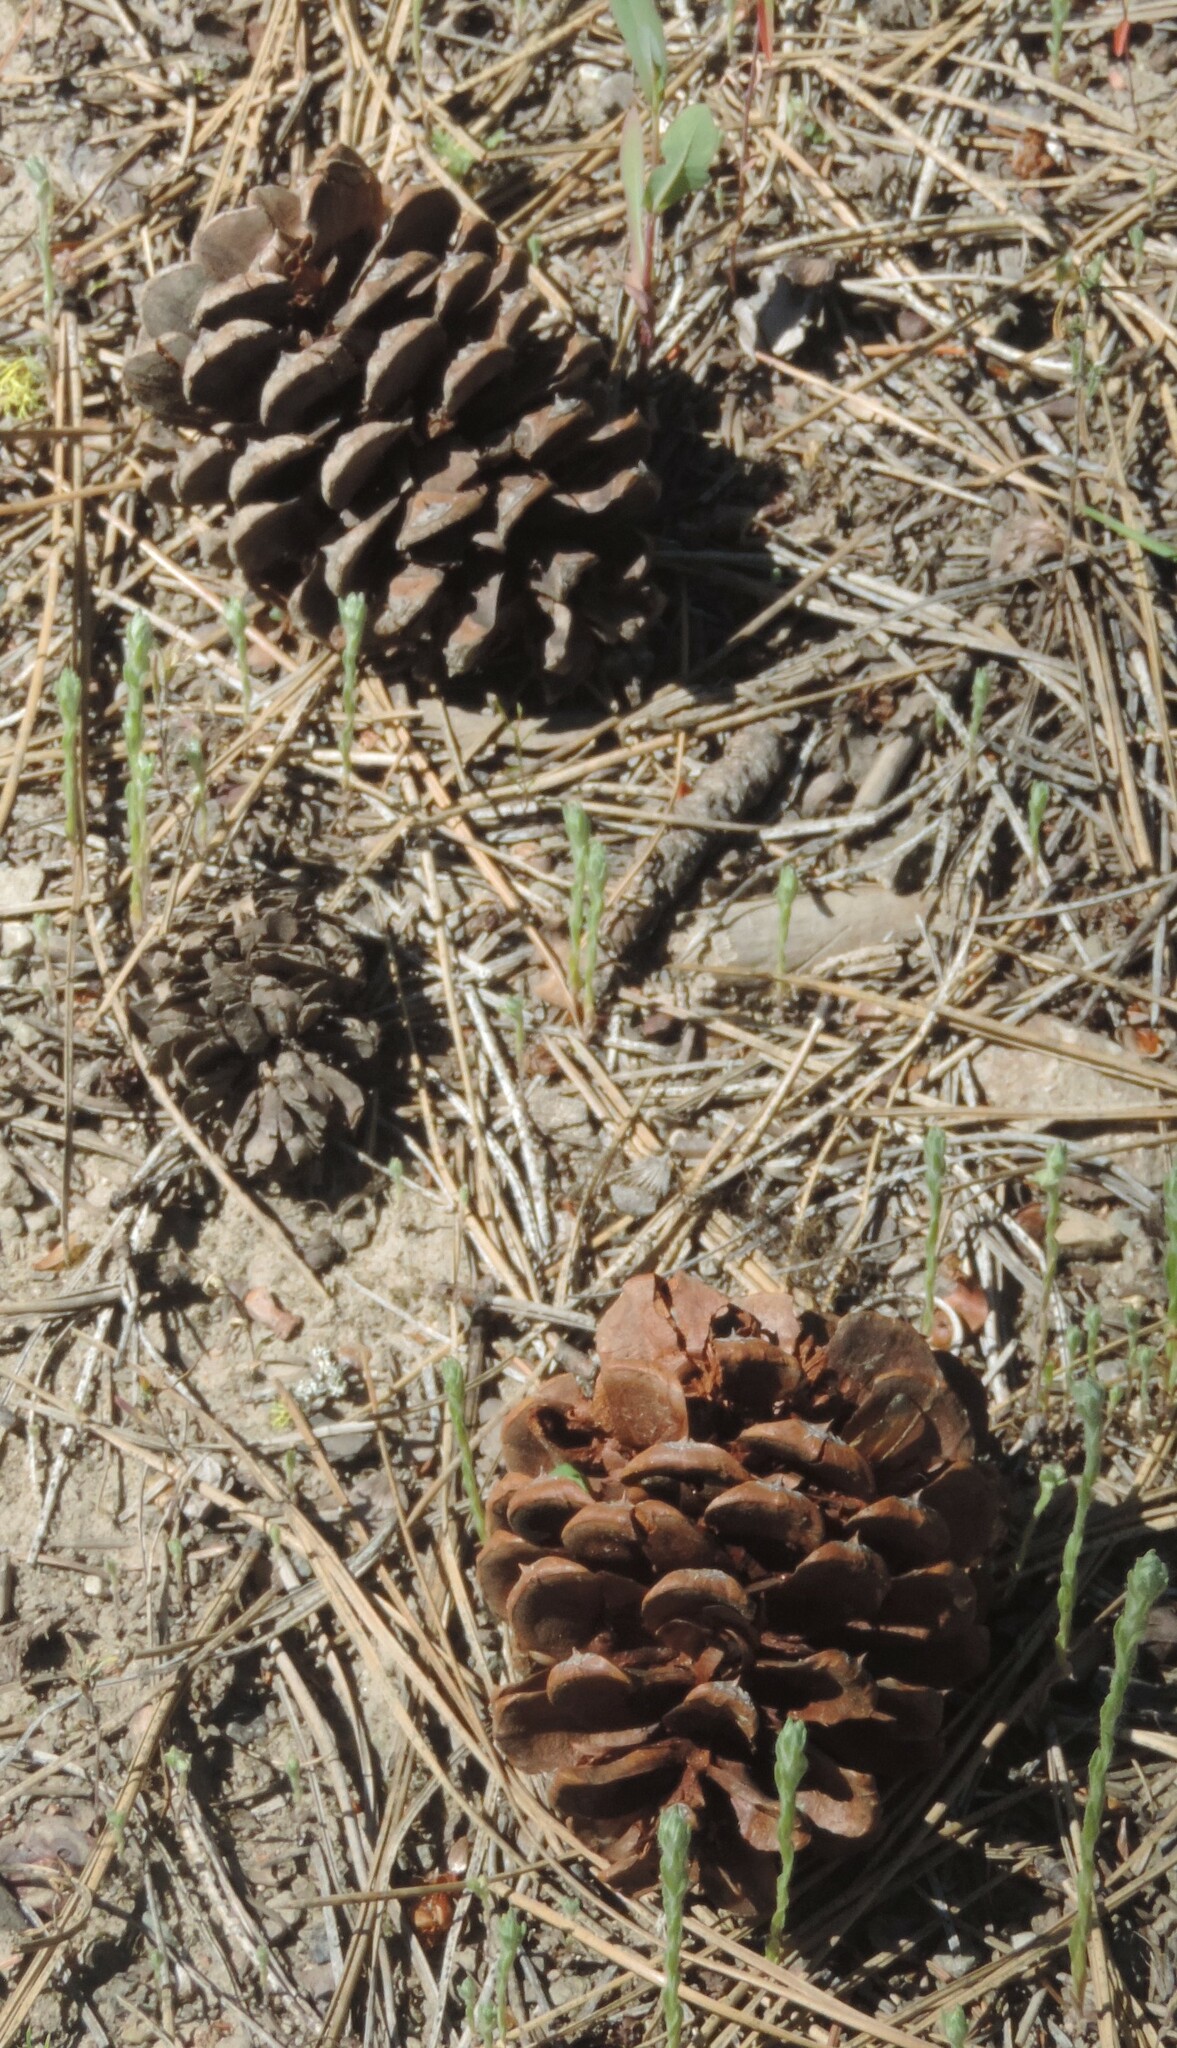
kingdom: Plantae
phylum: Tracheophyta
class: Pinopsida
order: Pinales
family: Pinaceae
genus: Pinus
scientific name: Pinus ponderosa
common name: Western yellow-pine
